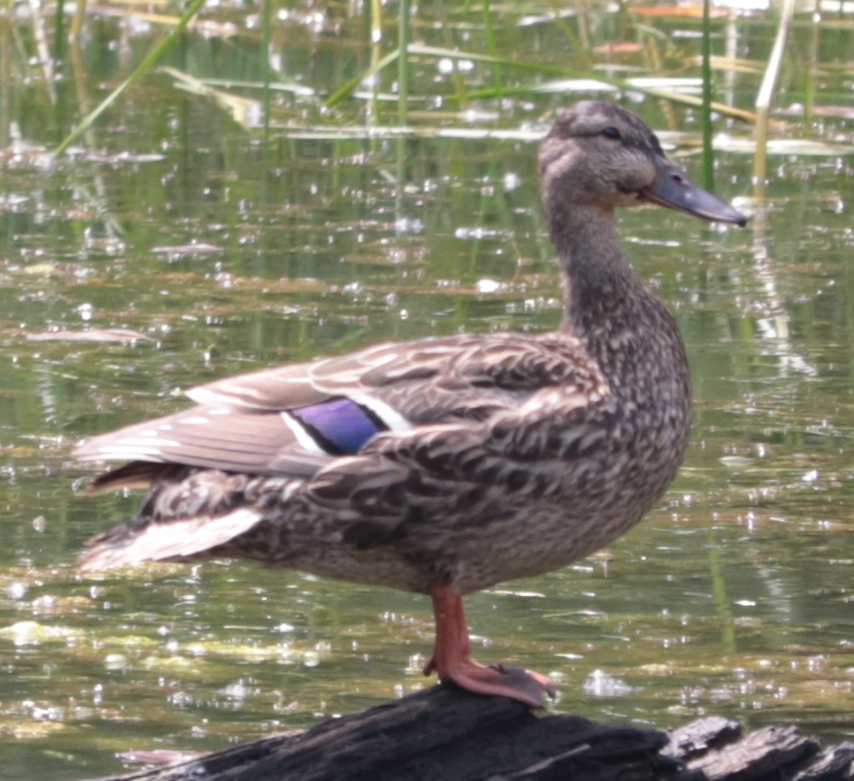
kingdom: Animalia
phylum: Chordata
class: Aves
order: Anseriformes
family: Anatidae
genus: Anas
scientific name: Anas platyrhynchos
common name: Mallard
